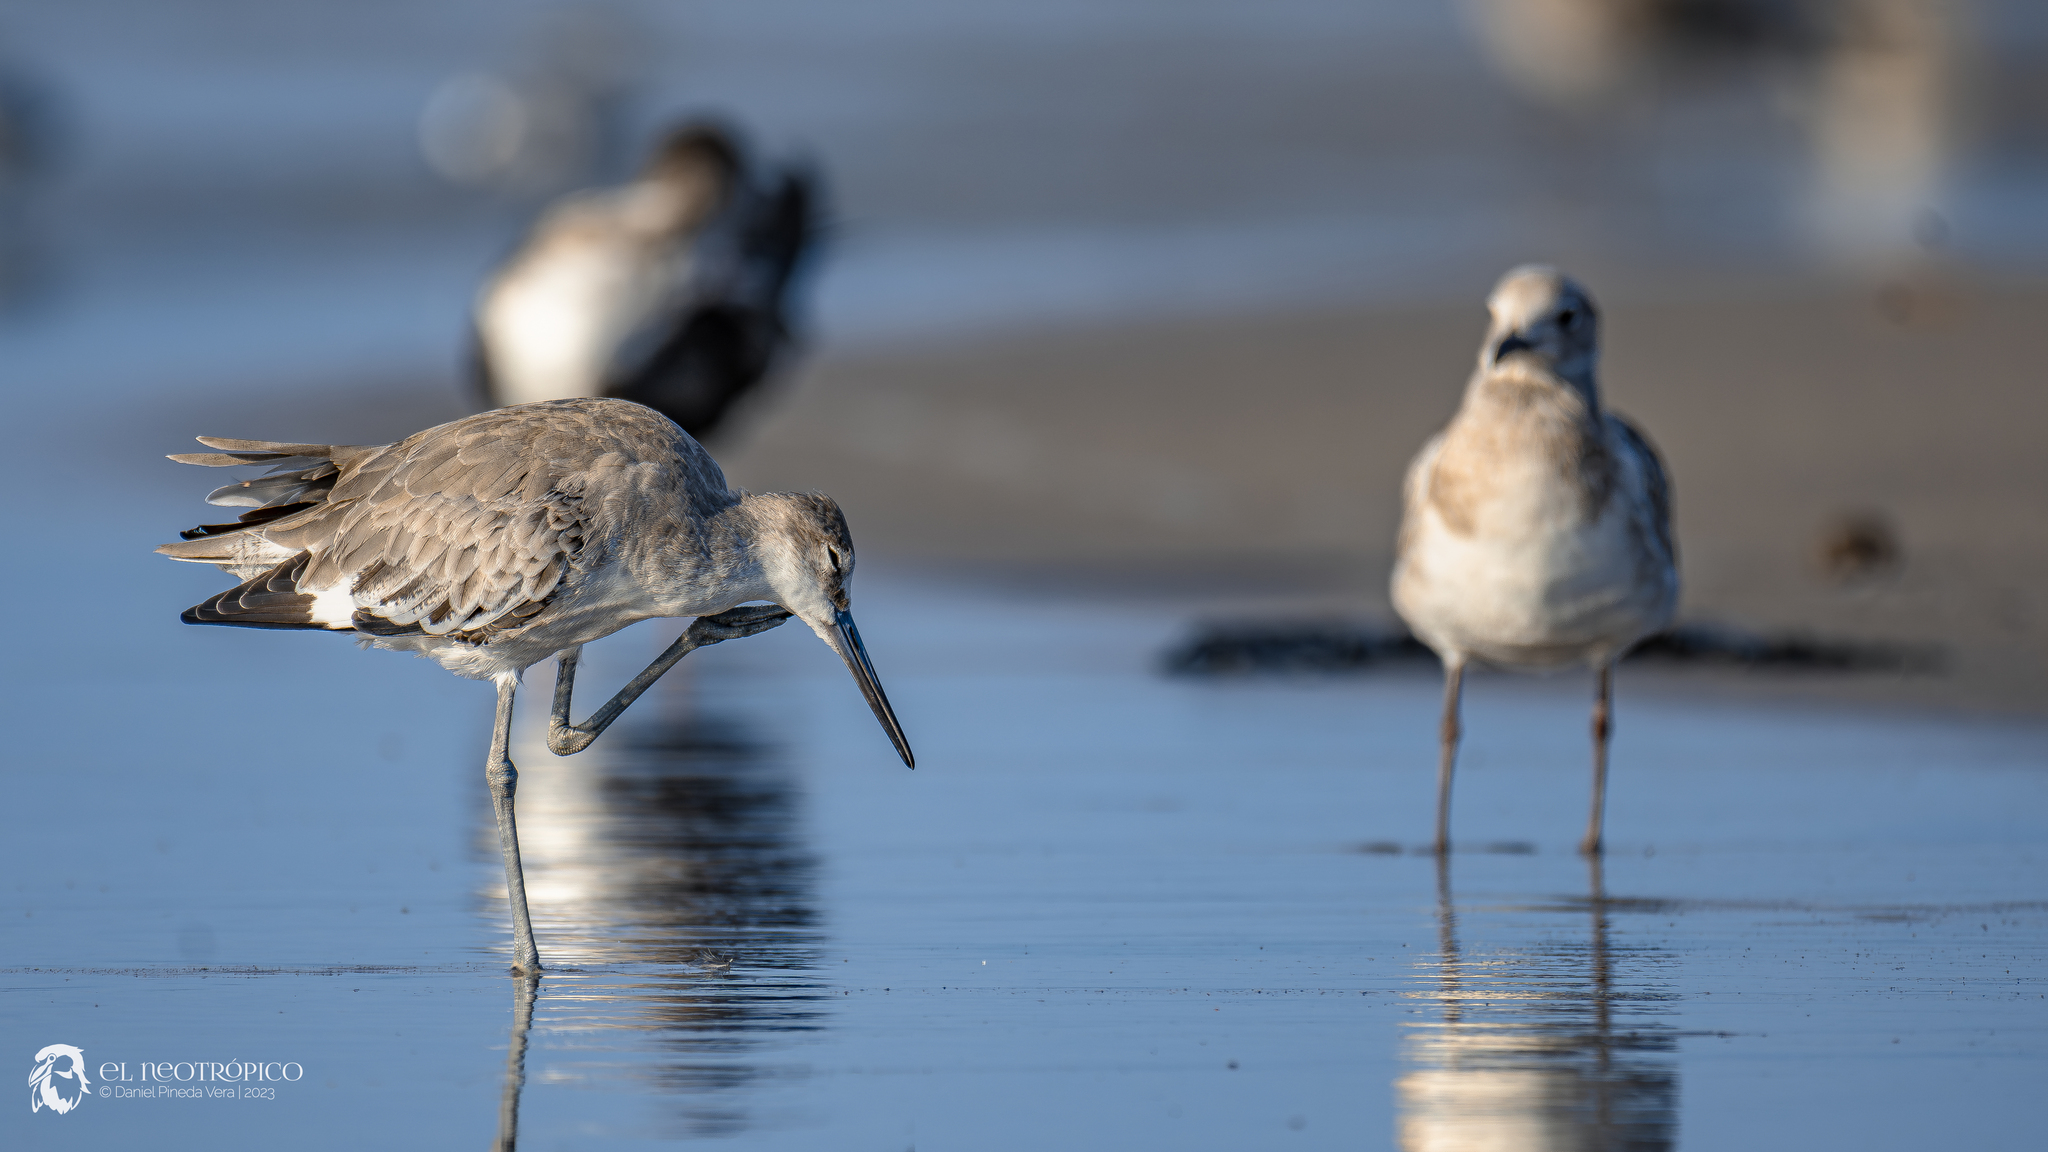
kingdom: Animalia
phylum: Chordata
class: Aves
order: Charadriiformes
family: Scolopacidae
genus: Tringa
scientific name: Tringa semipalmata
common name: Willet
